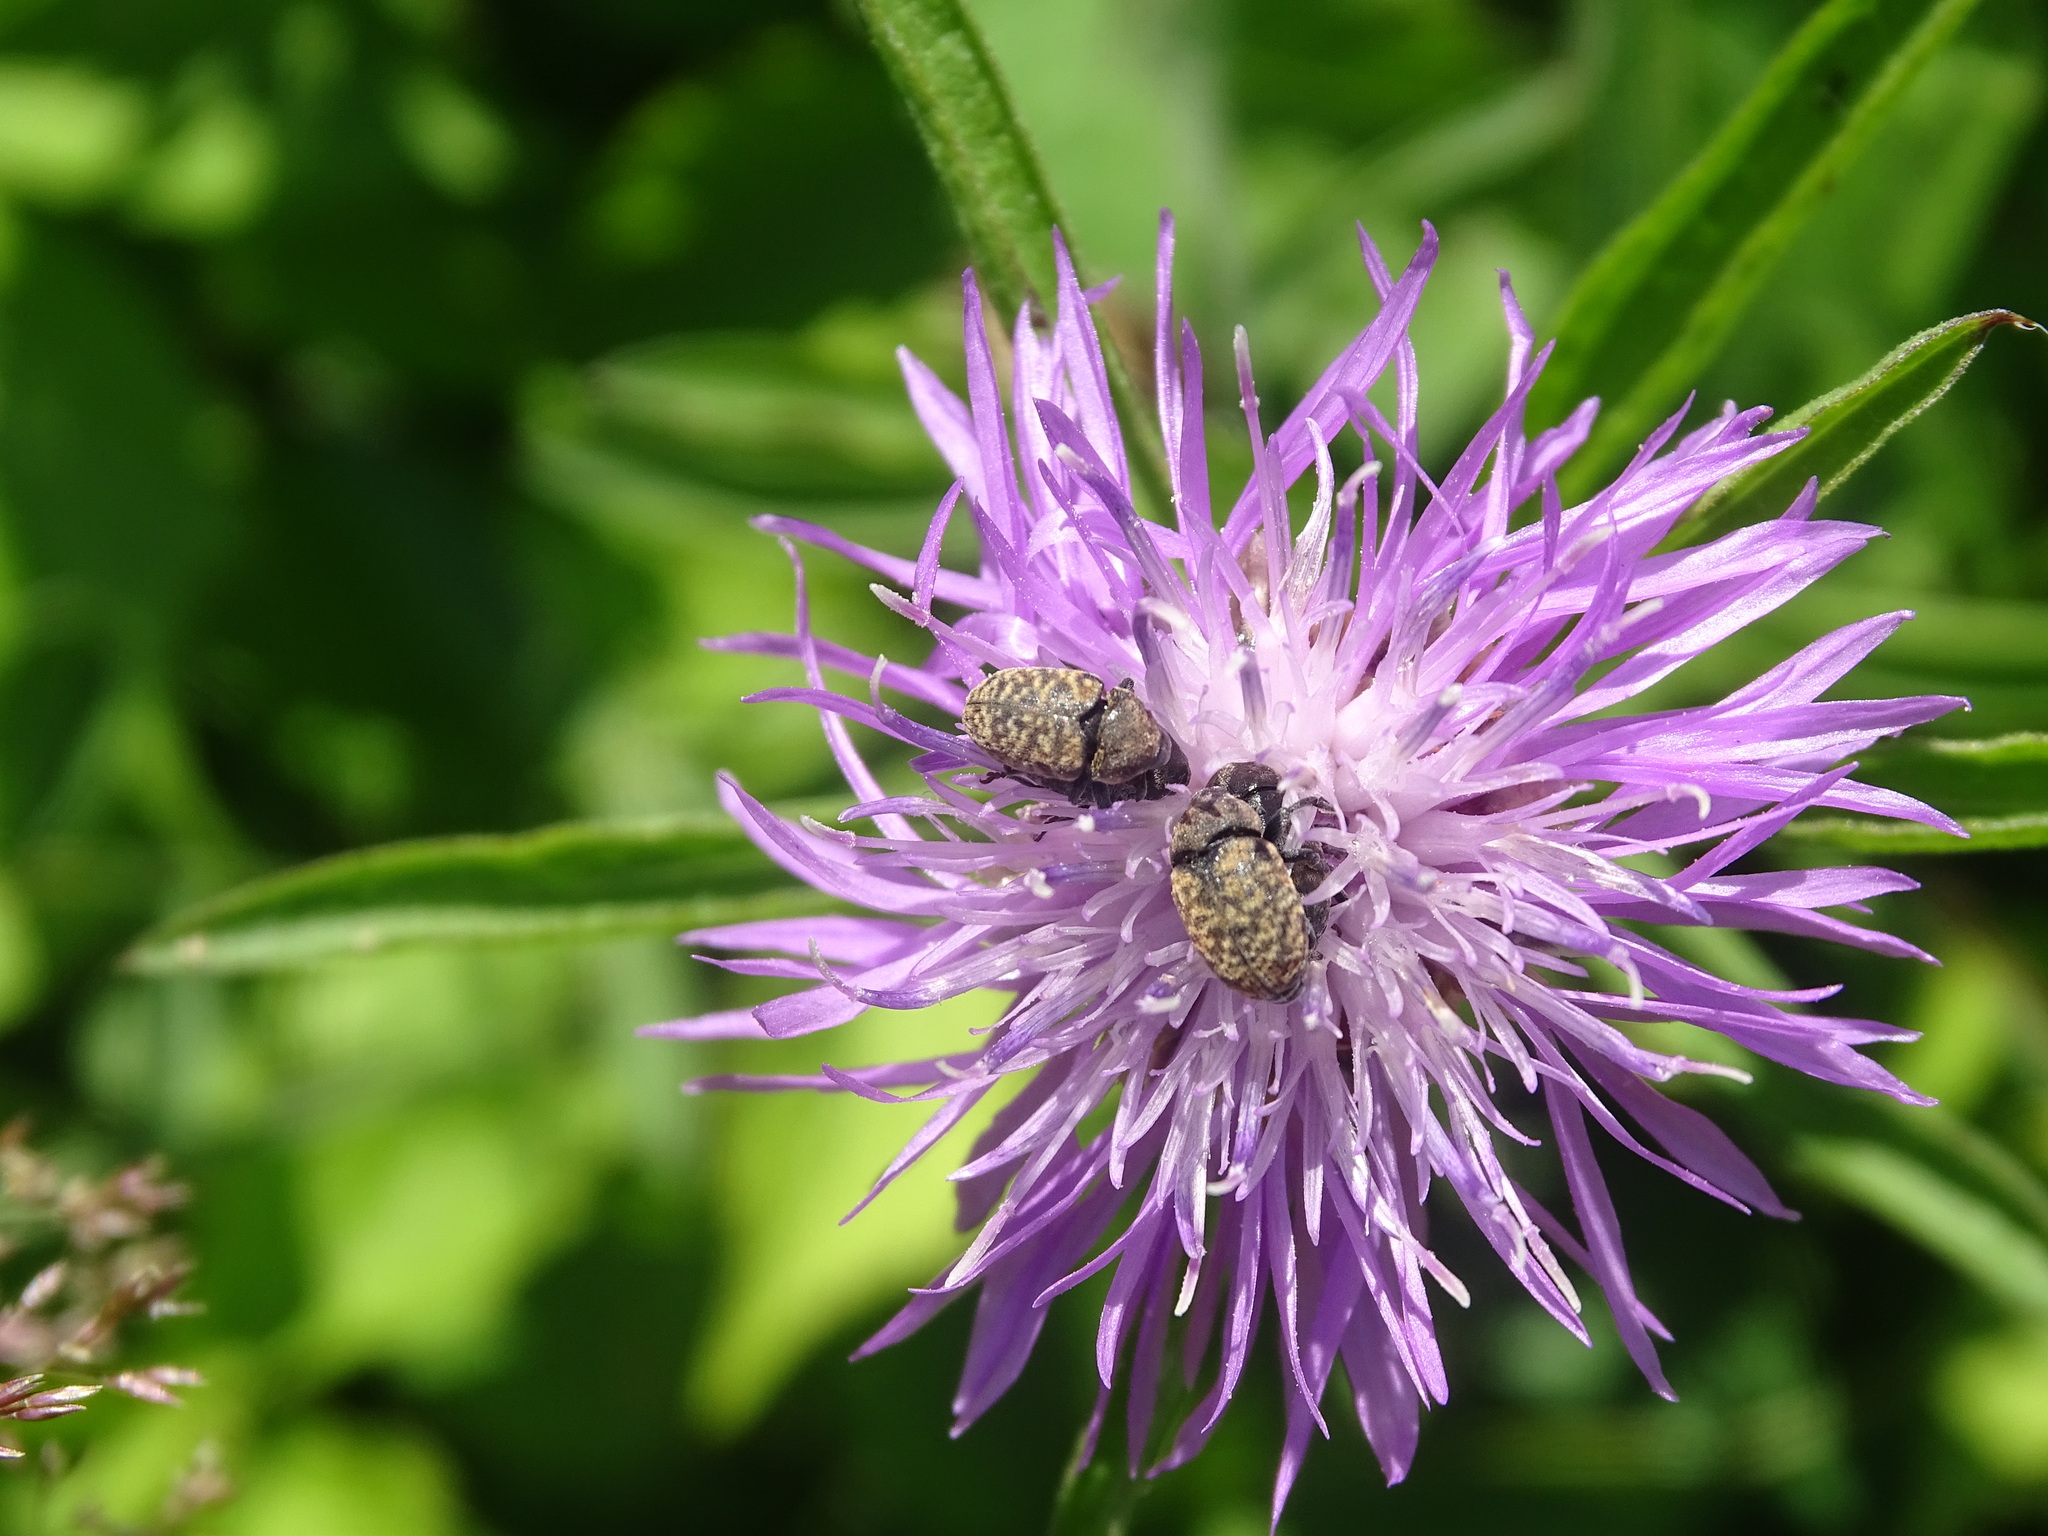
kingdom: Animalia
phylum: Arthropoda
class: Insecta
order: Coleoptera
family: Curculionidae
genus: Larinus
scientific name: Larinus obtusus
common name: Weevil
